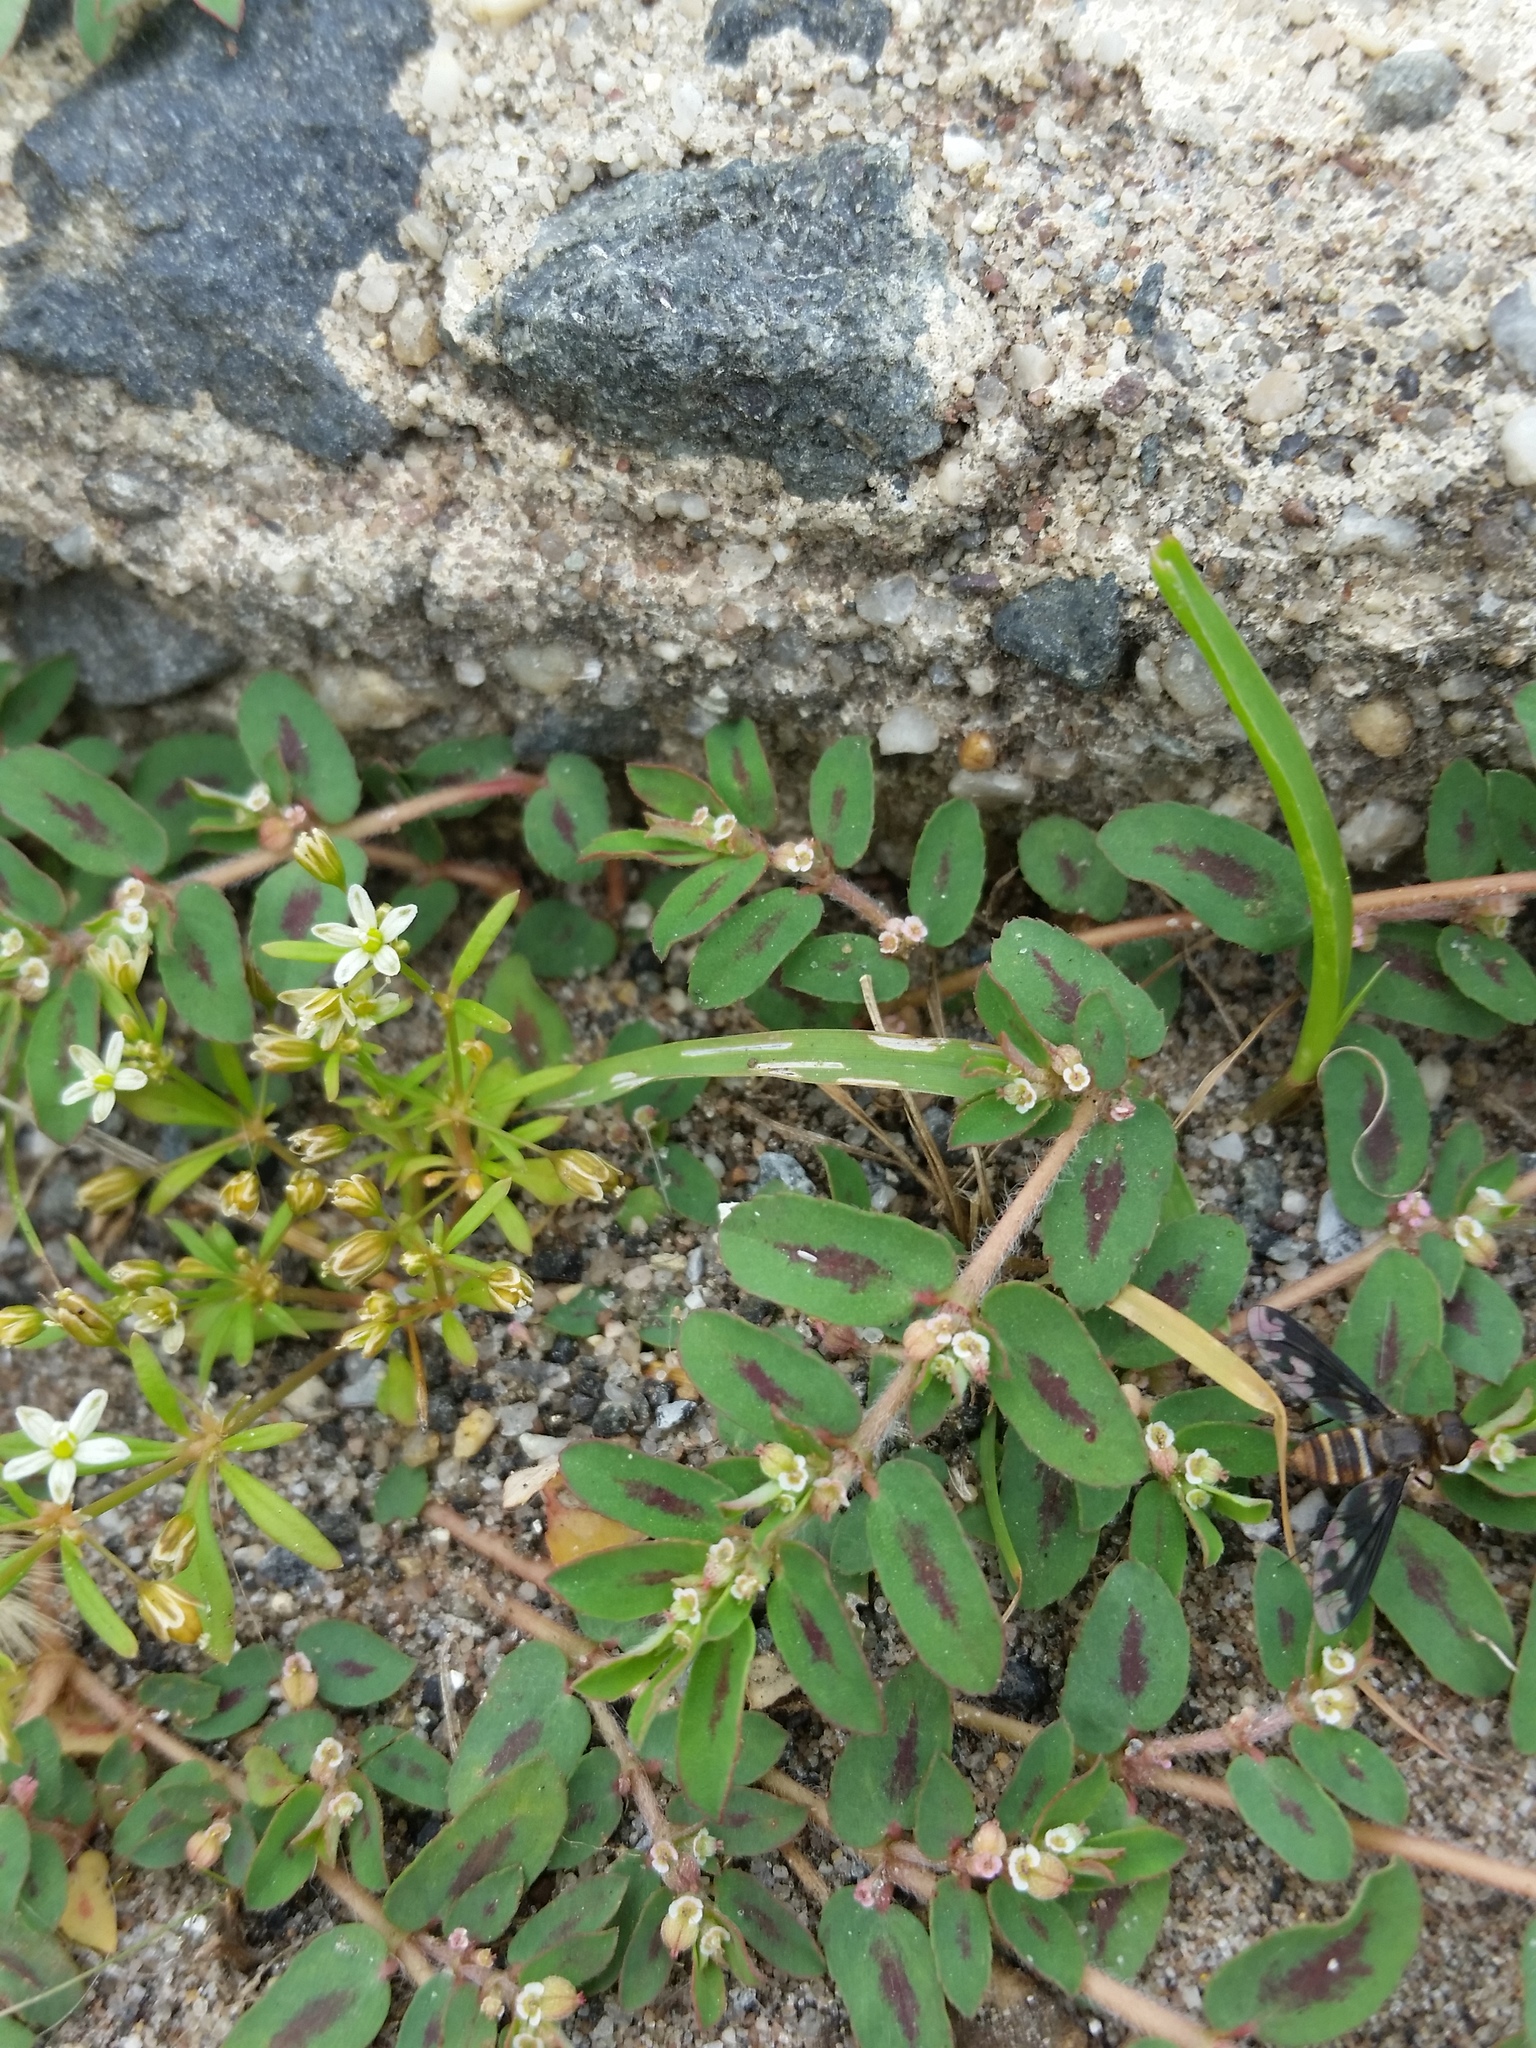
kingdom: Plantae
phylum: Tracheophyta
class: Magnoliopsida
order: Malpighiales
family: Euphorbiaceae
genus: Euphorbia
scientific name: Euphorbia maculata
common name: Spotted spurge
